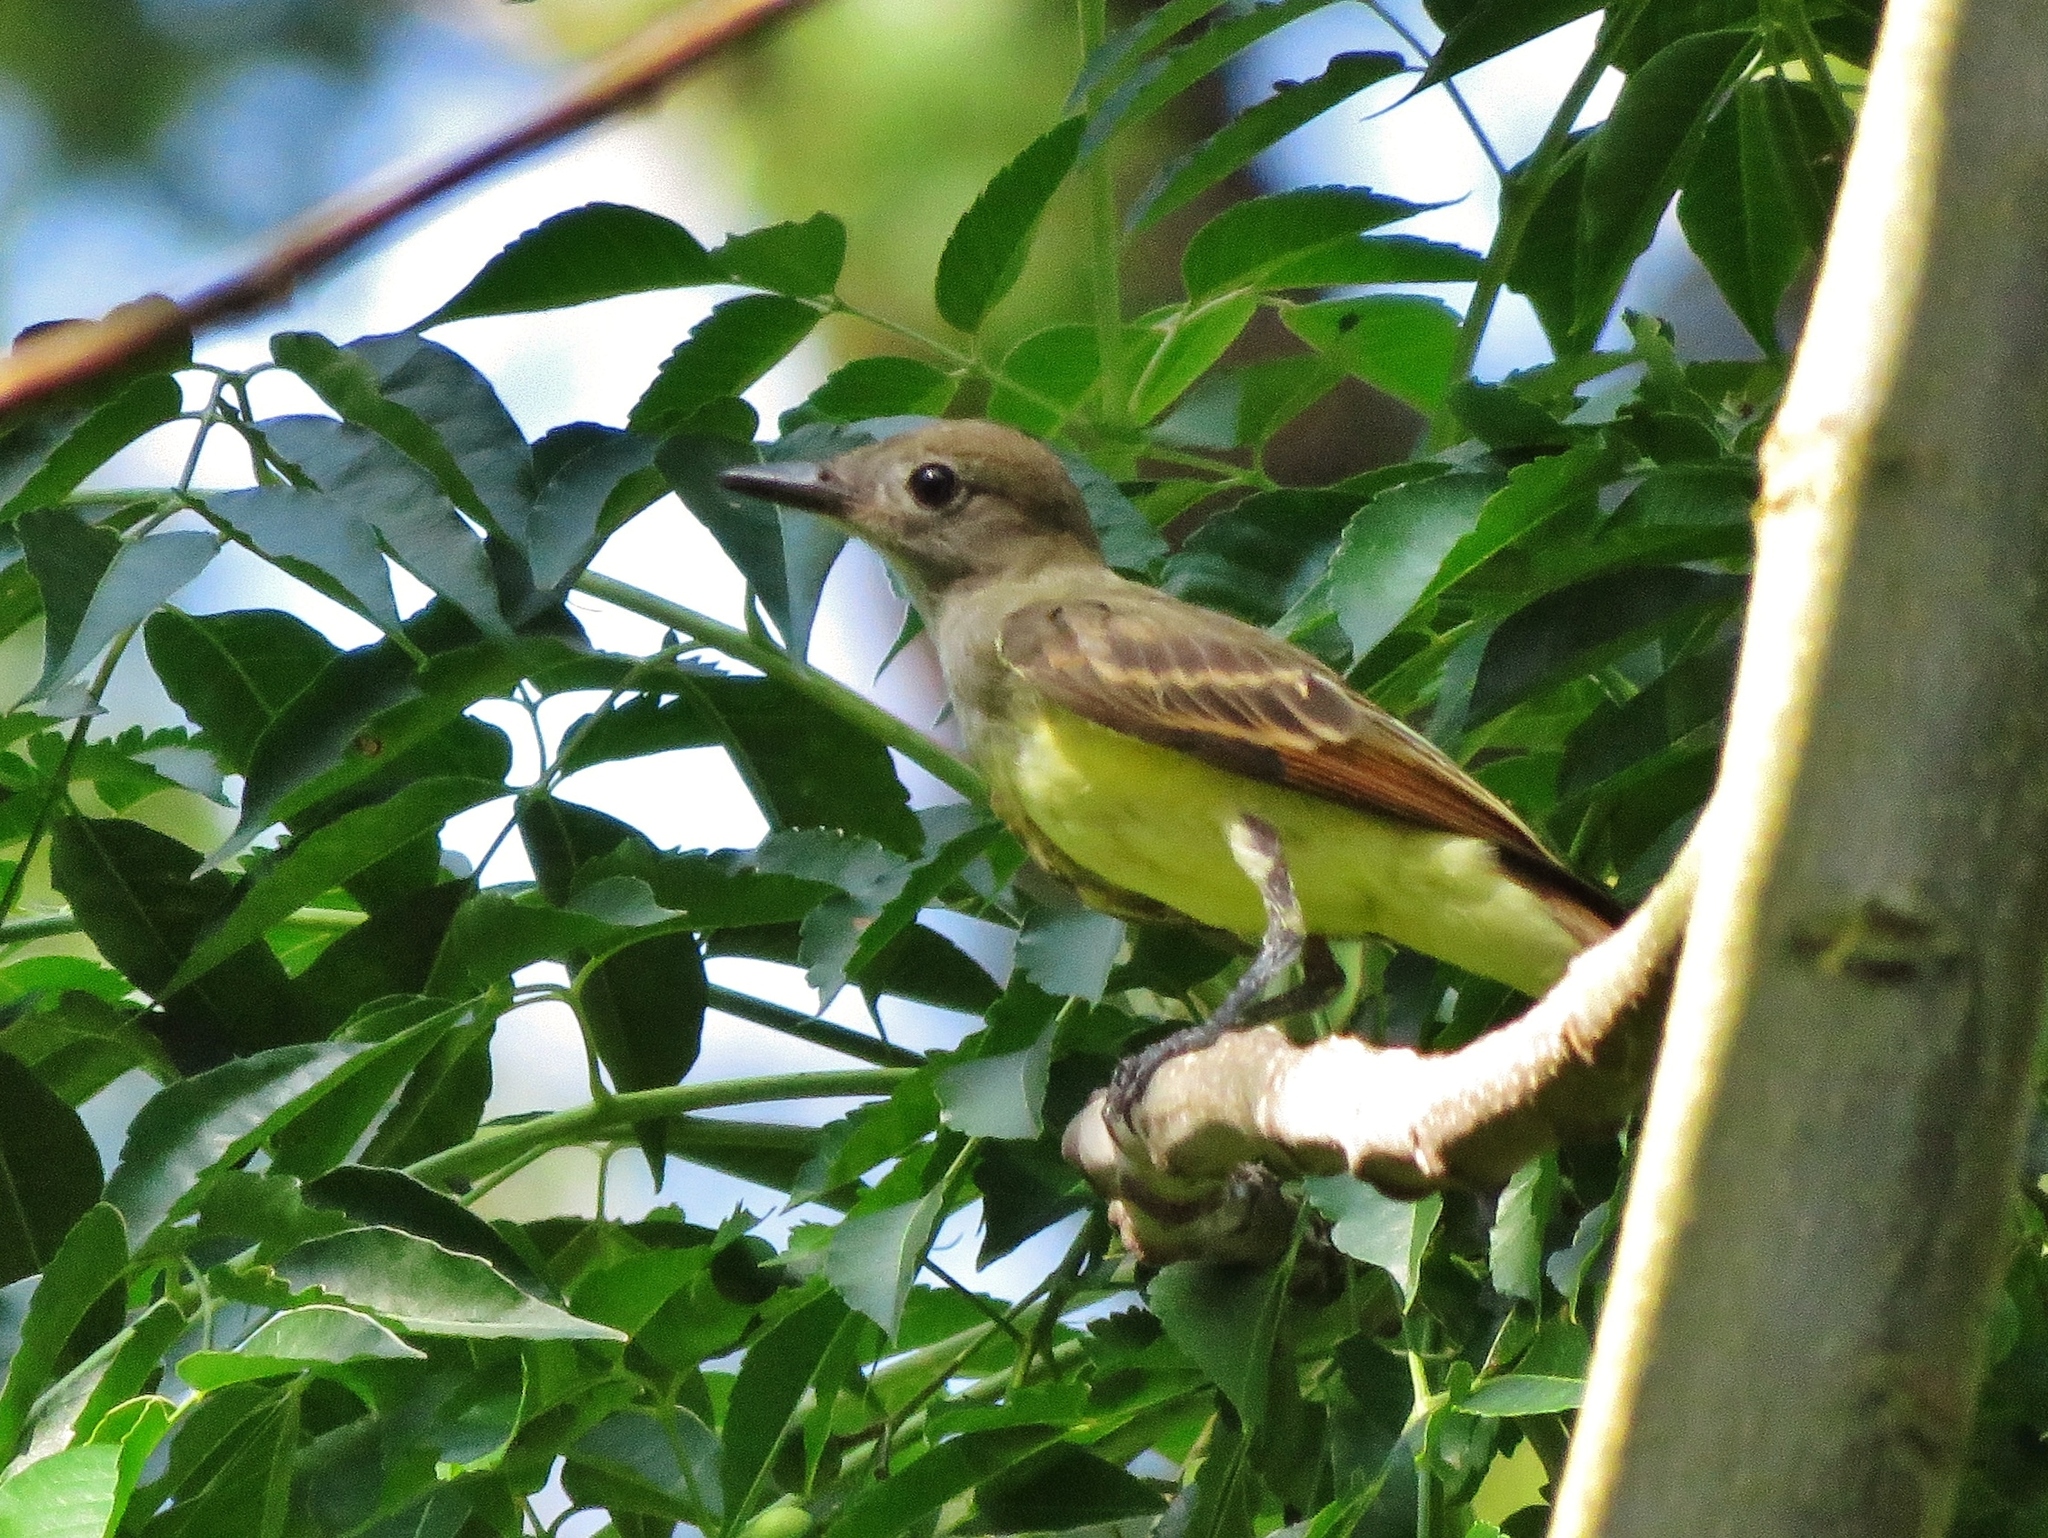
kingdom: Animalia
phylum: Chordata
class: Aves
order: Passeriformes
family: Tyrannidae
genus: Myiarchus
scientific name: Myiarchus crinitus
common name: Great crested flycatcher
